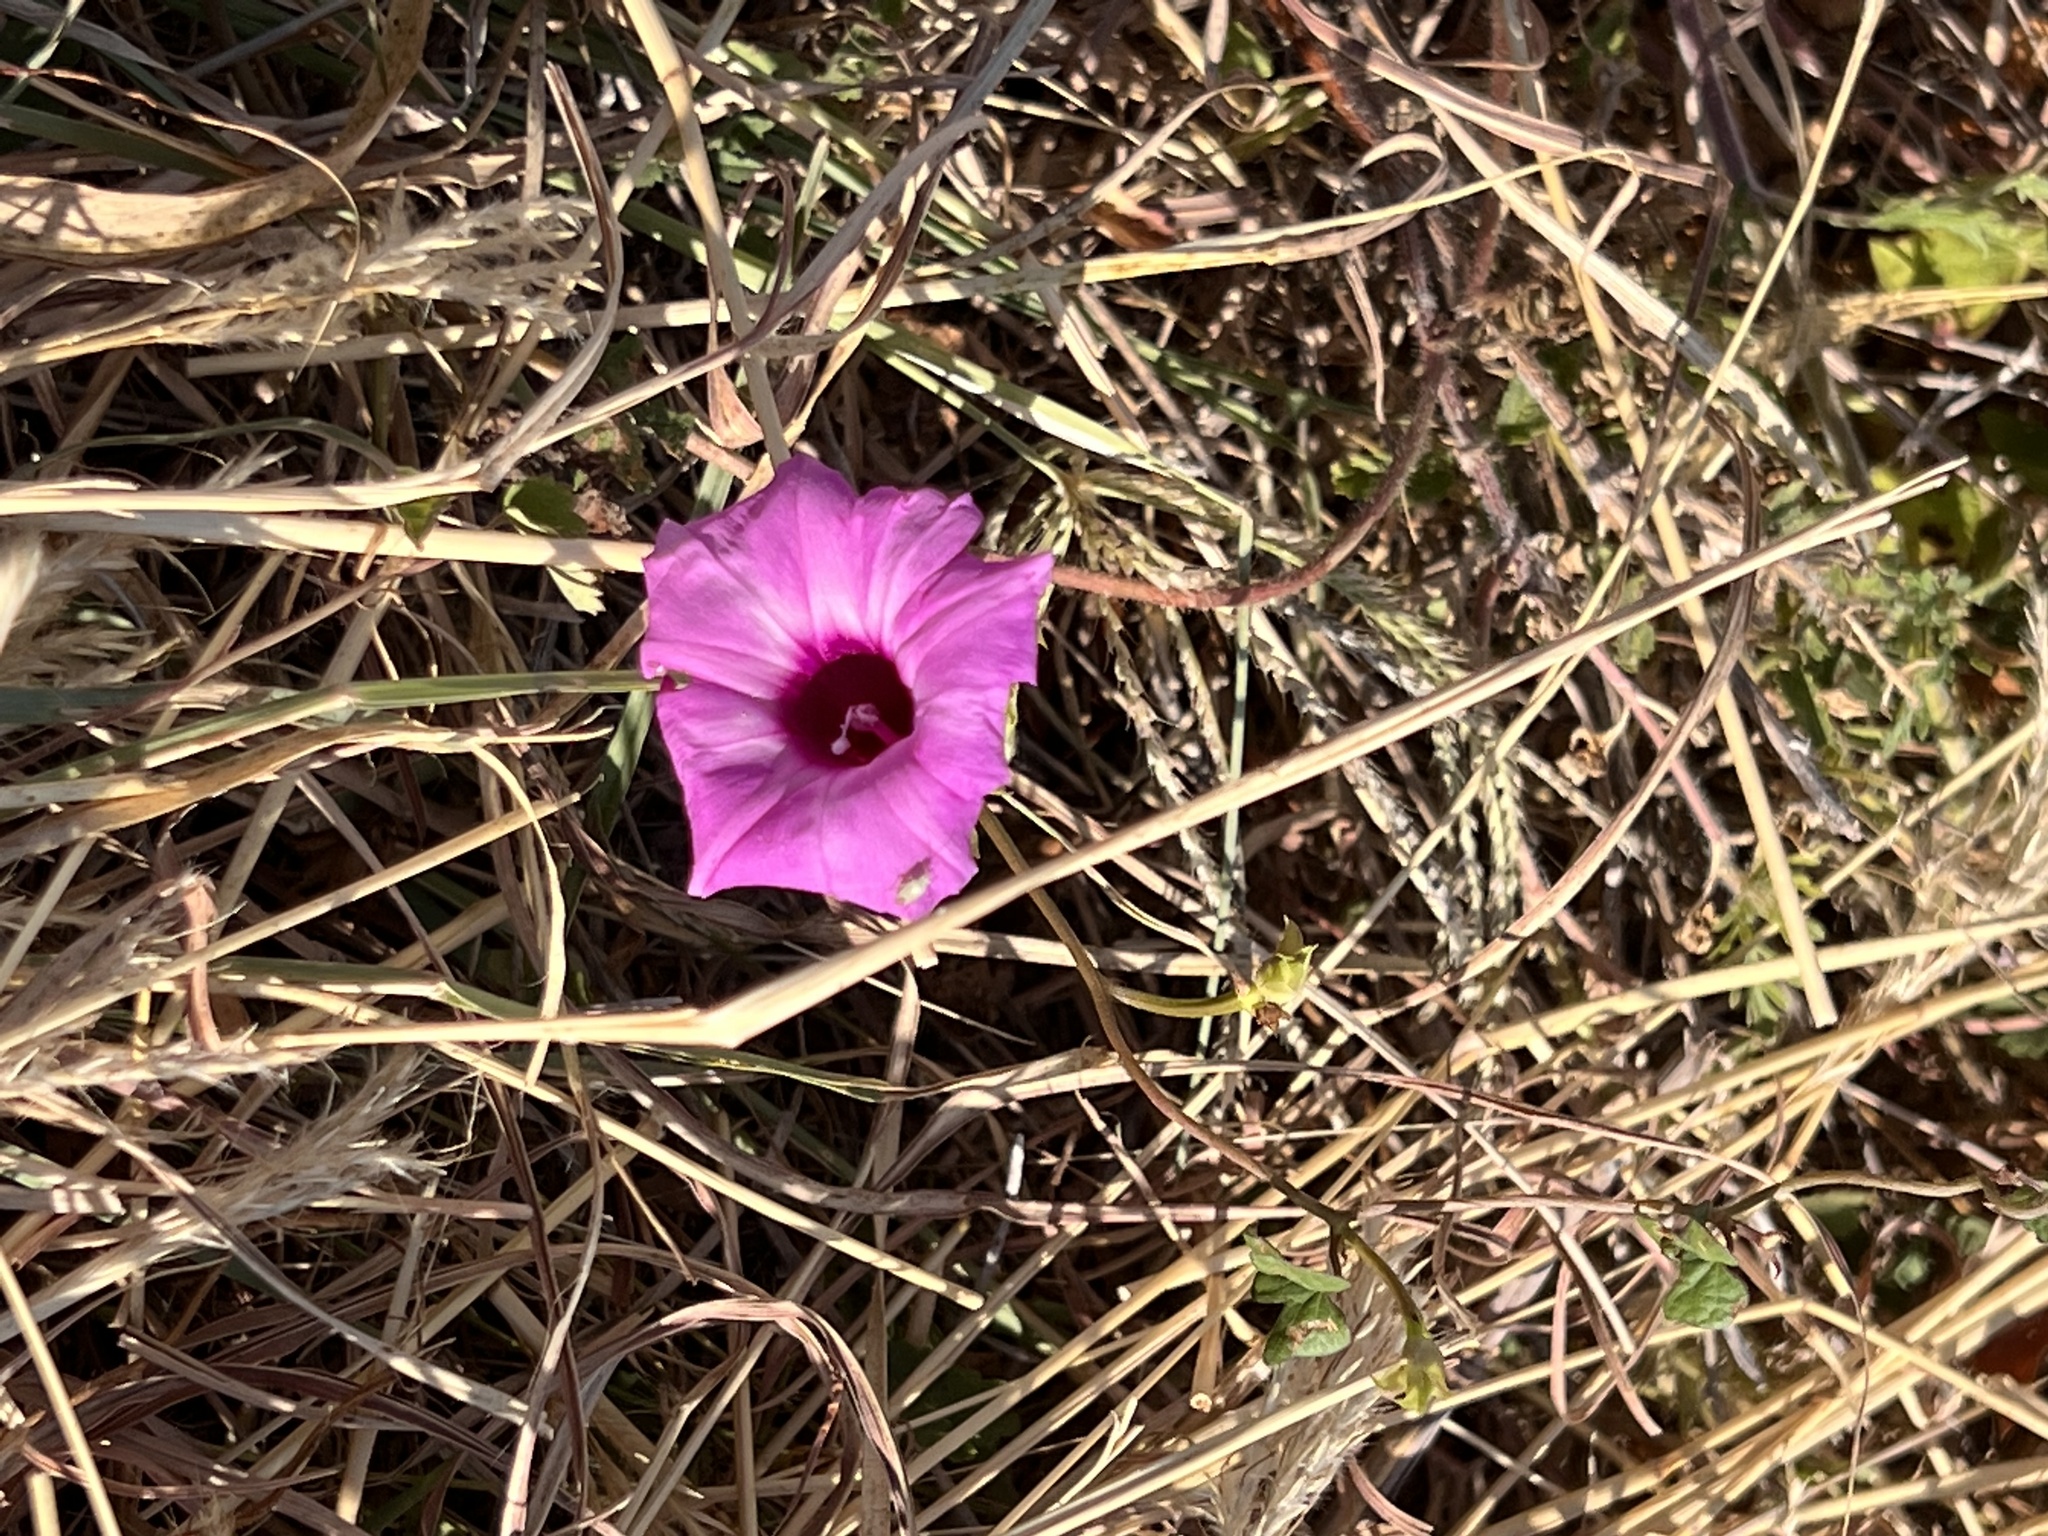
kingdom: Plantae
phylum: Tracheophyta
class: Magnoliopsida
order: Solanales
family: Convolvulaceae
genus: Ipomoea
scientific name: Ipomoea cordatotriloba
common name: Cotton morning glory
